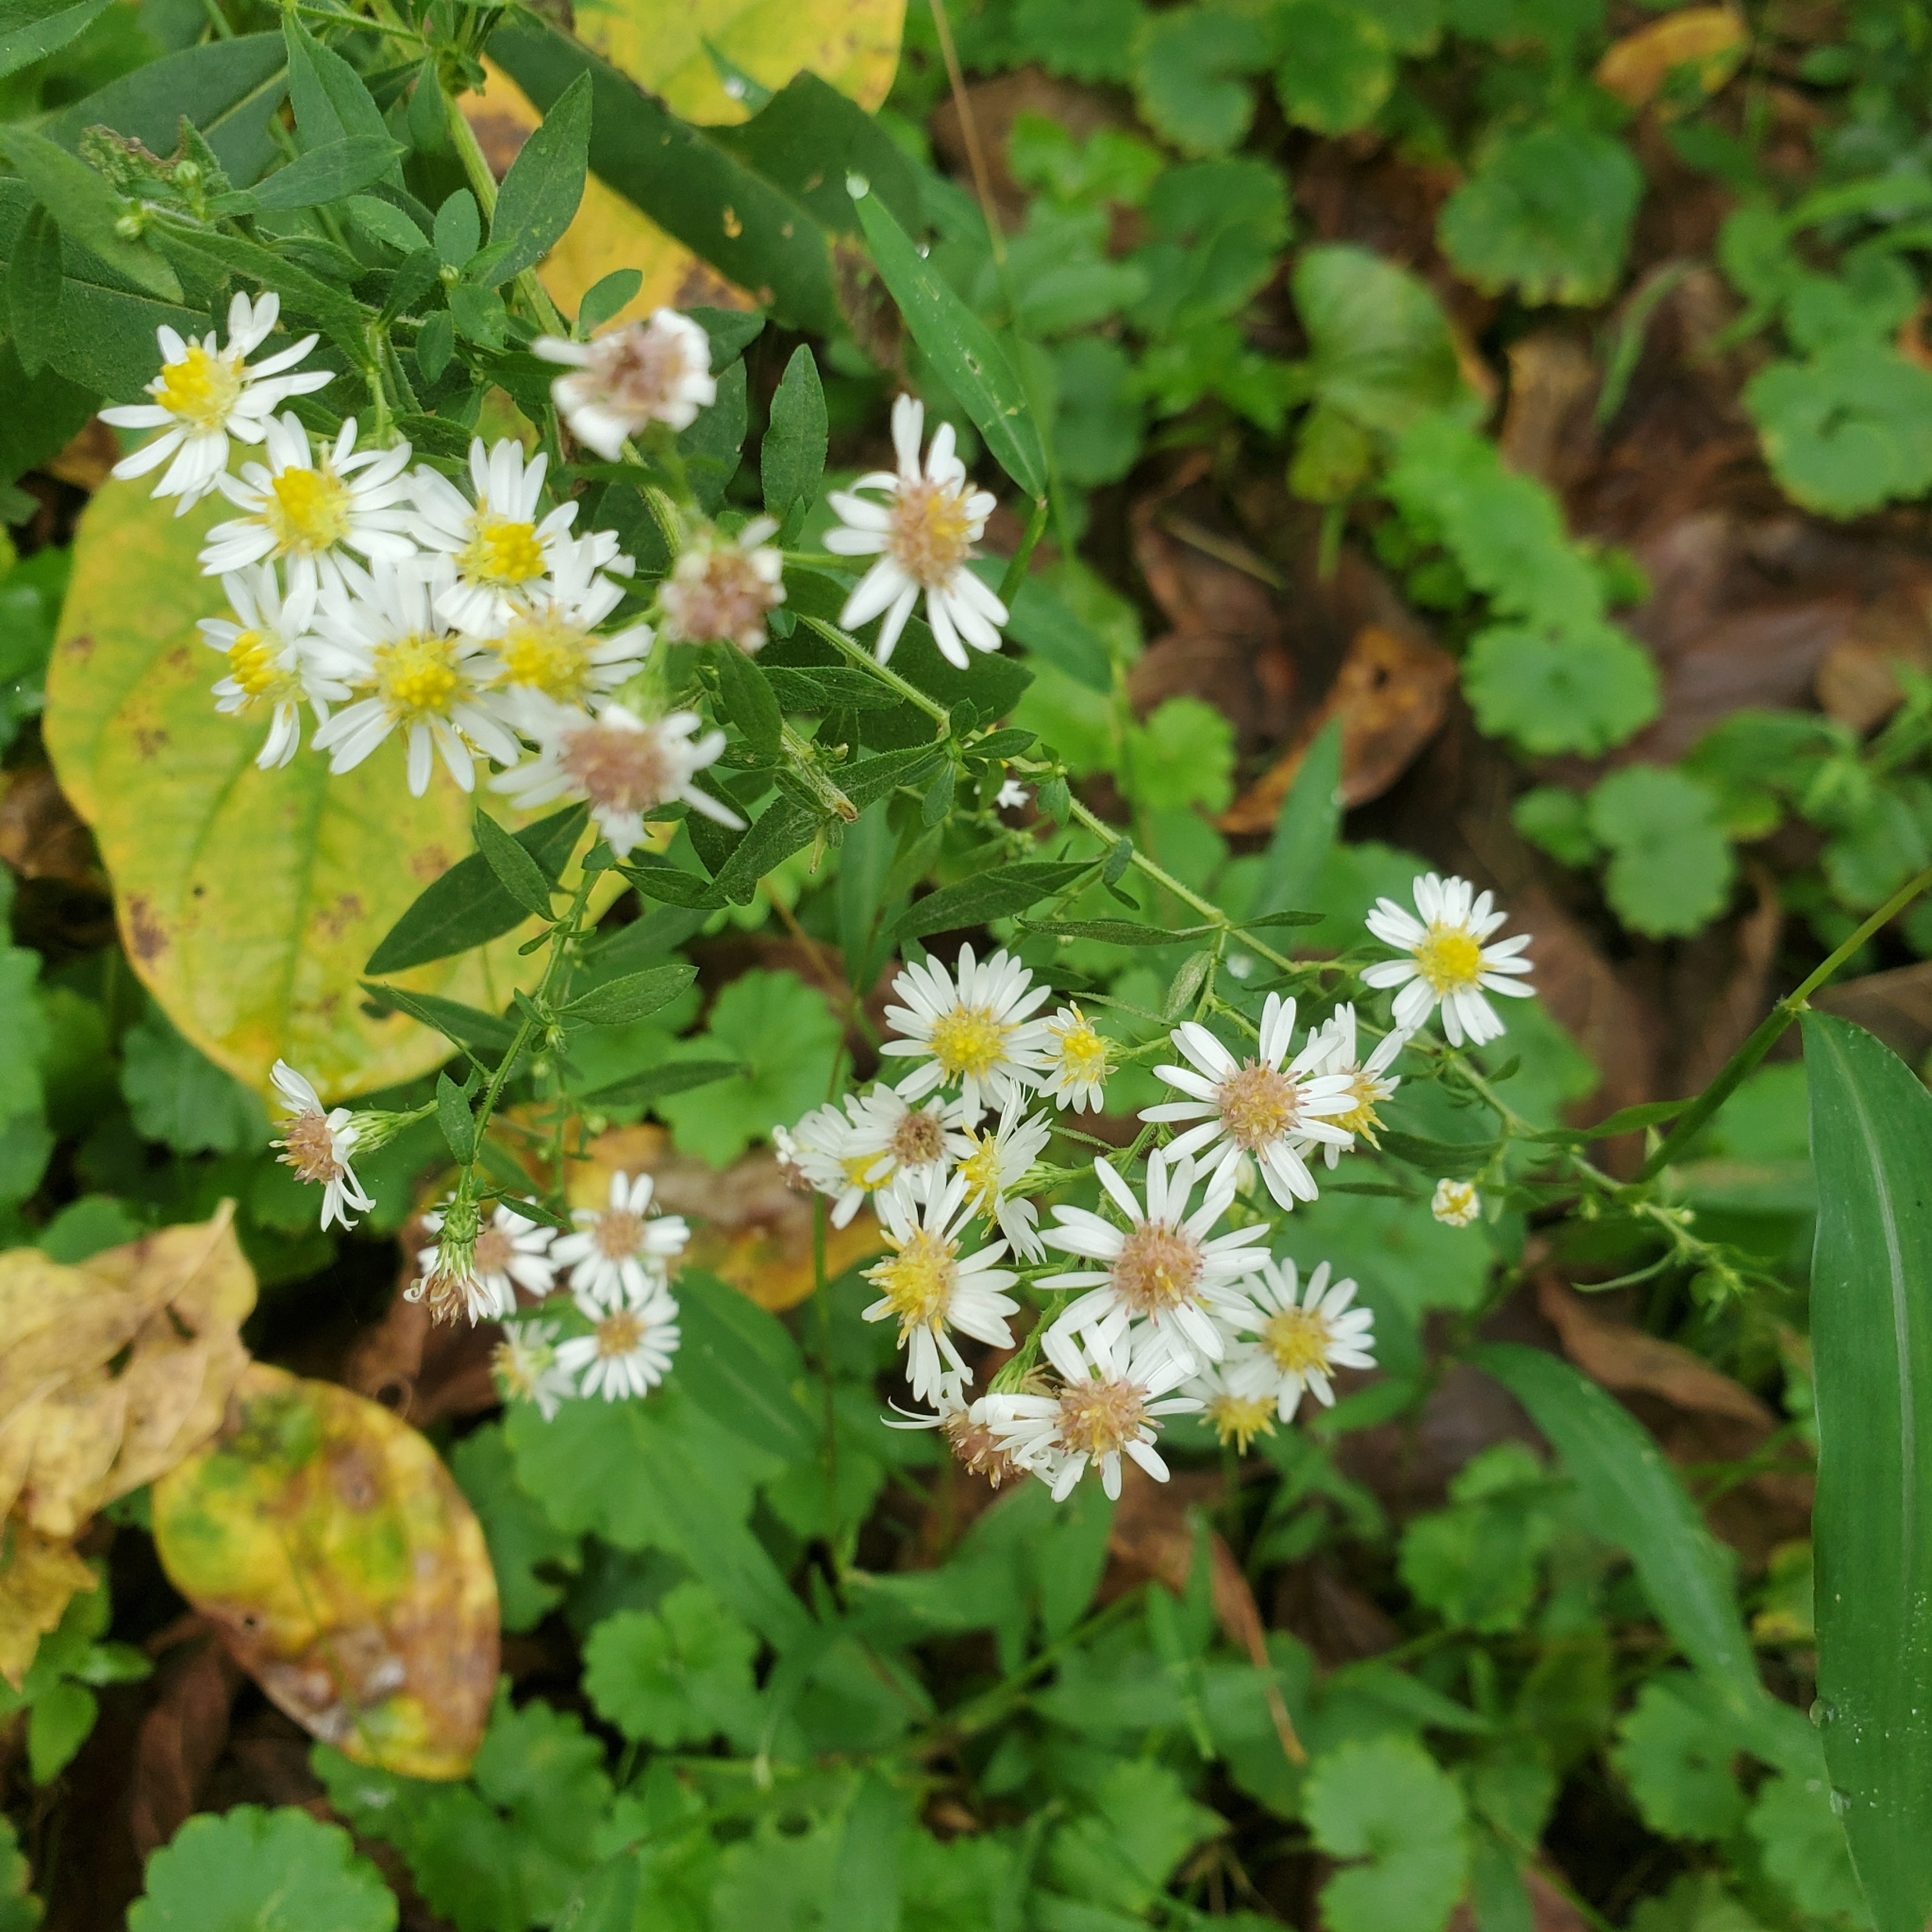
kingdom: Plantae
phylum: Tracheophyta
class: Magnoliopsida
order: Asterales
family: Asteraceae
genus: Symphyotrichum
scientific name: Symphyotrichum lateriflorum
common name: Calico aster
